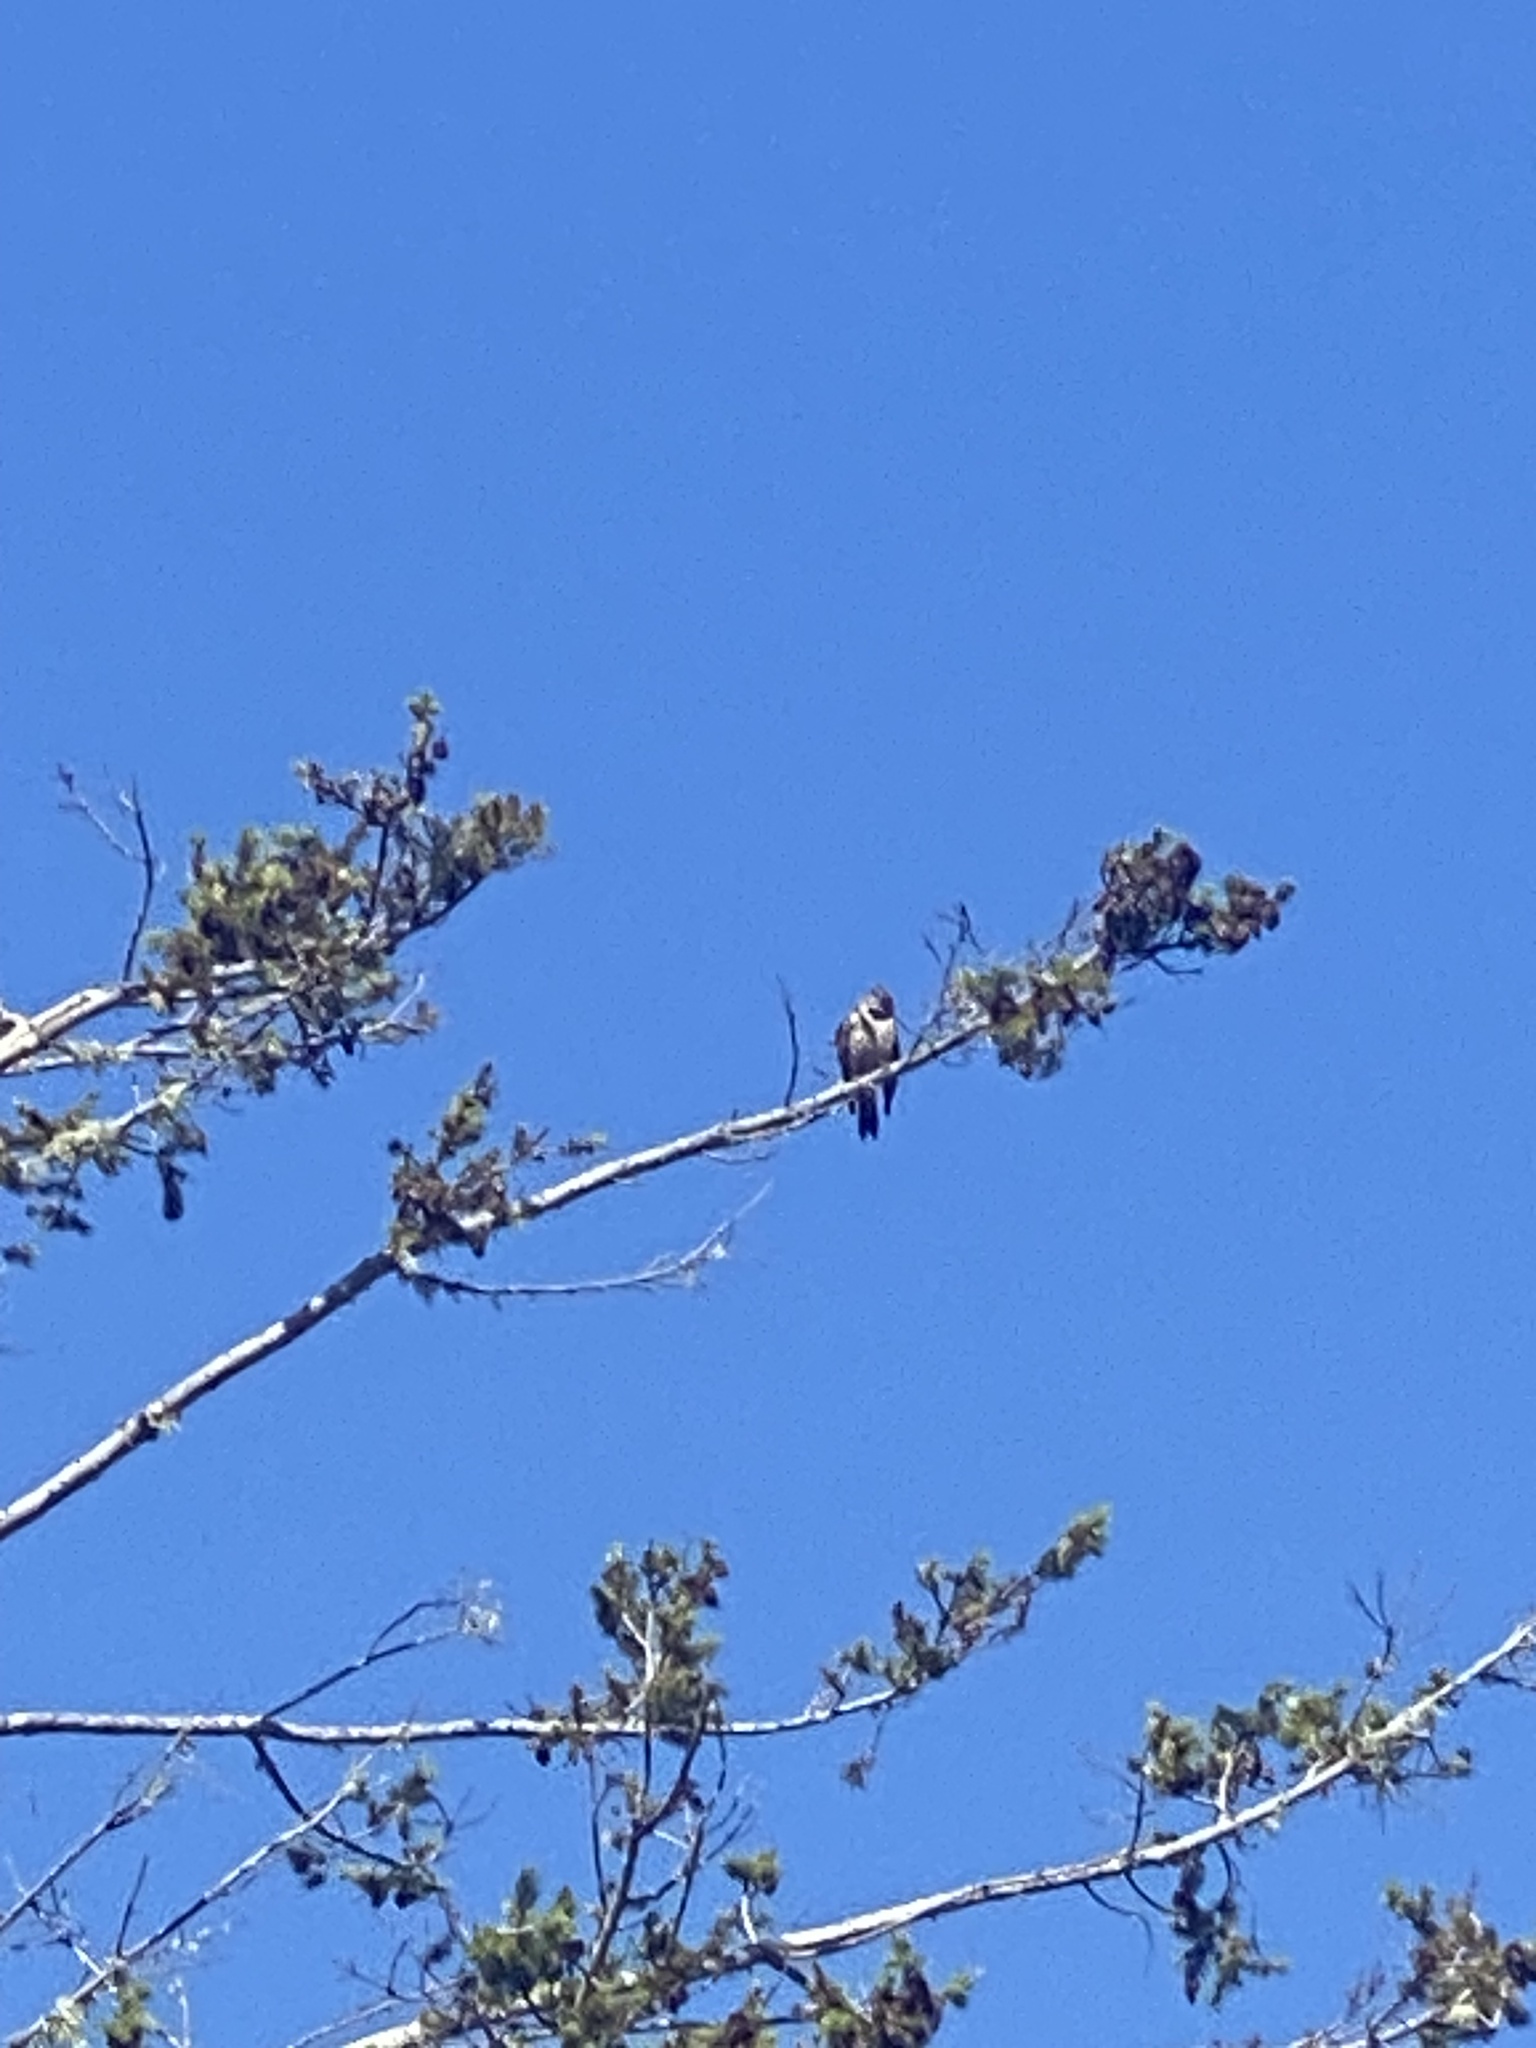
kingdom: Animalia
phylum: Chordata
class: Aves
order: Piciformes
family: Picidae
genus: Colaptes
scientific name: Colaptes auratus
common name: Northern flicker
